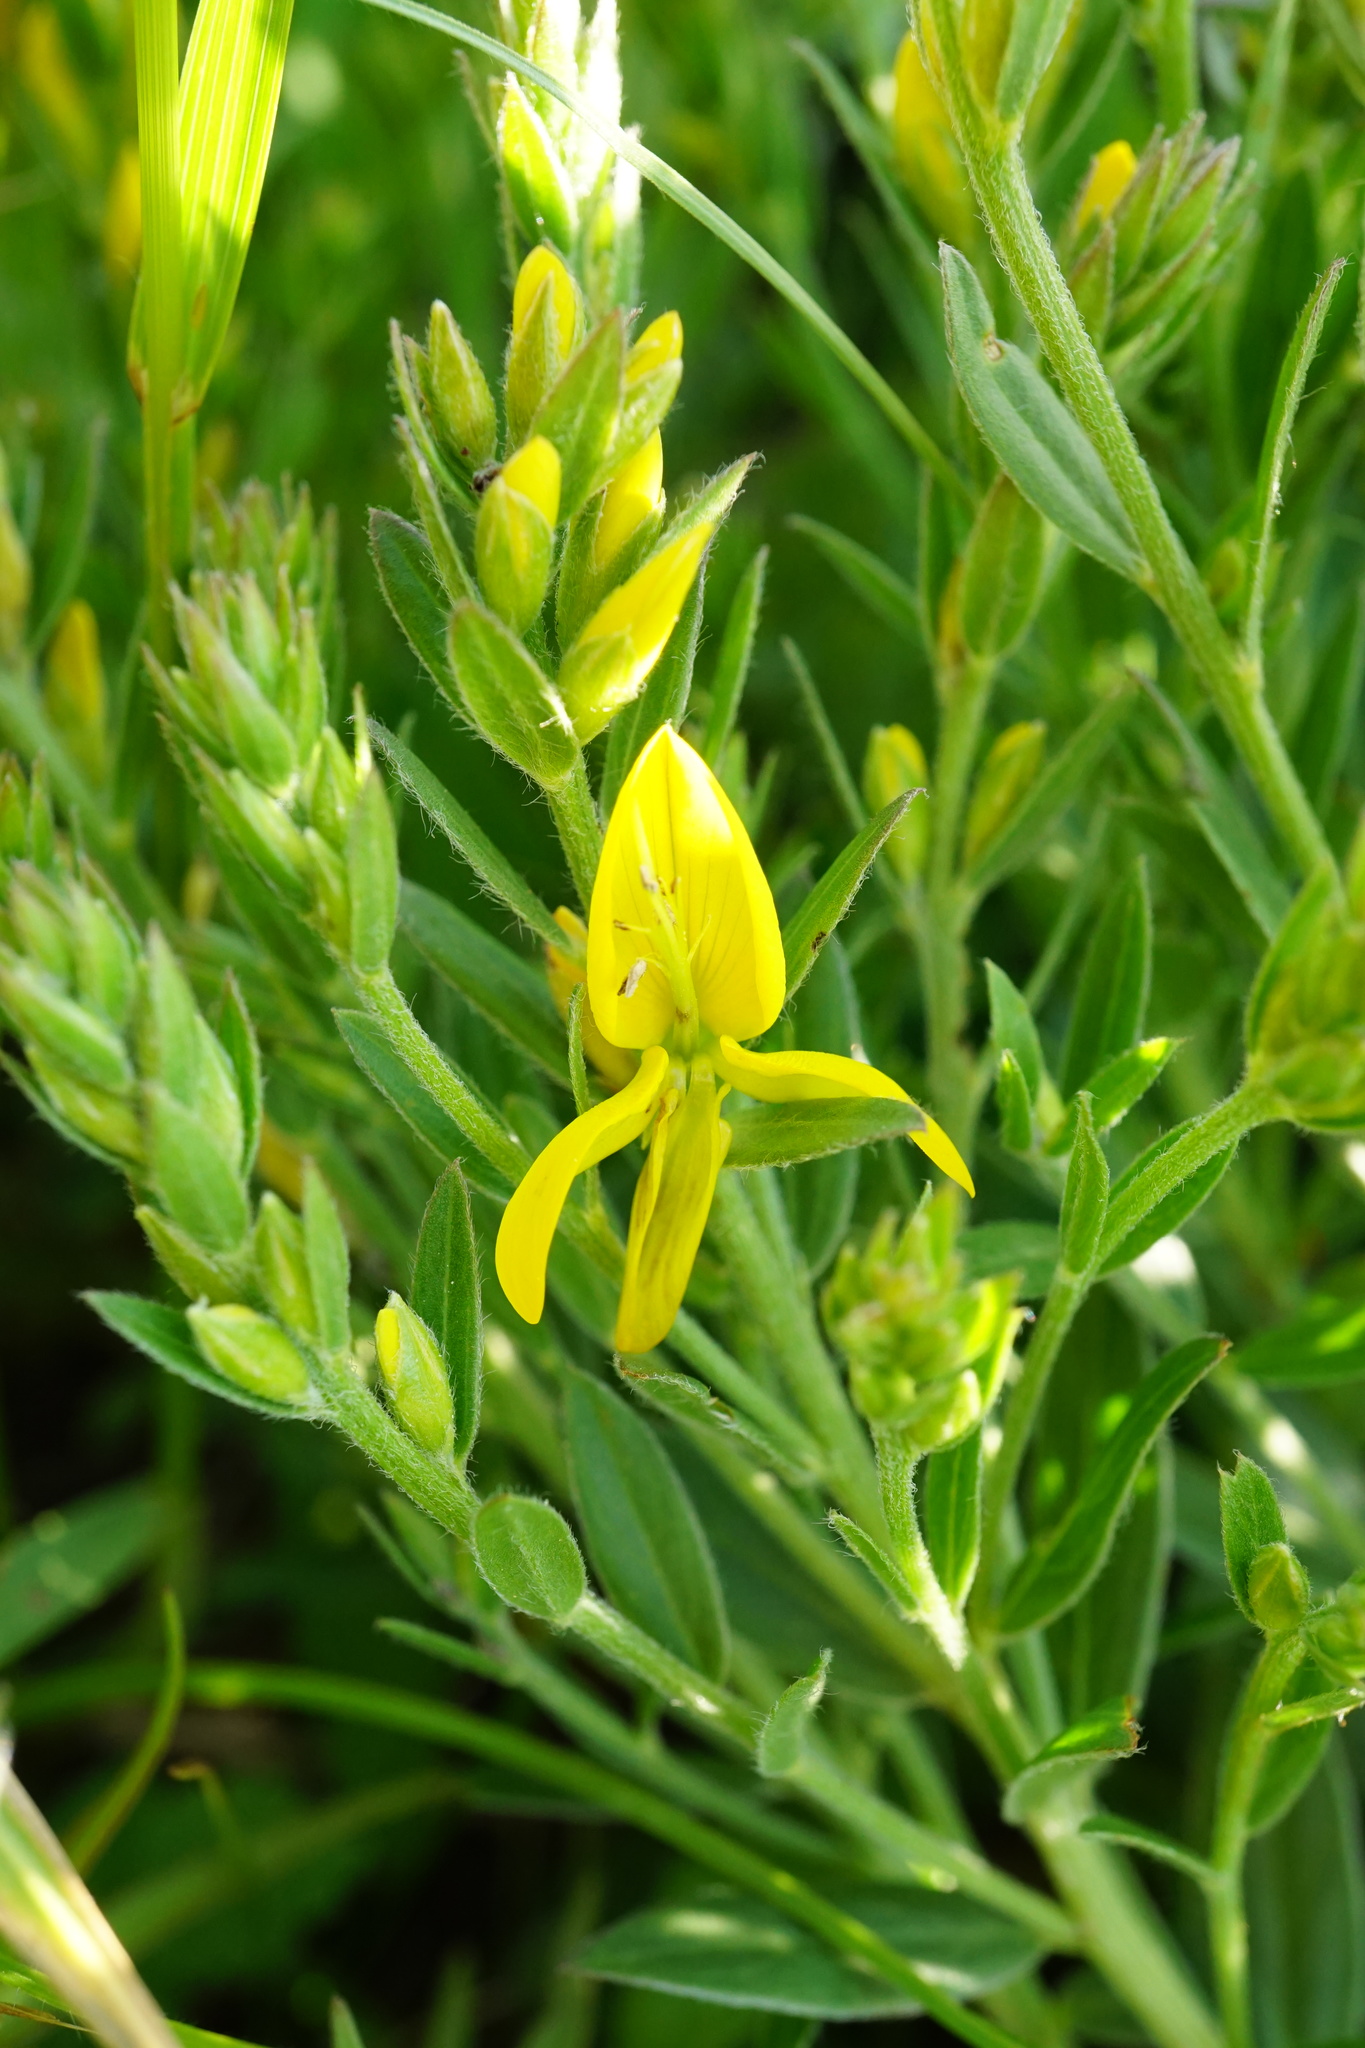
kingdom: Plantae
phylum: Tracheophyta
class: Magnoliopsida
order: Fabales
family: Fabaceae
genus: Genista
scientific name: Genista tinctoria
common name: Dyer's greenweed
